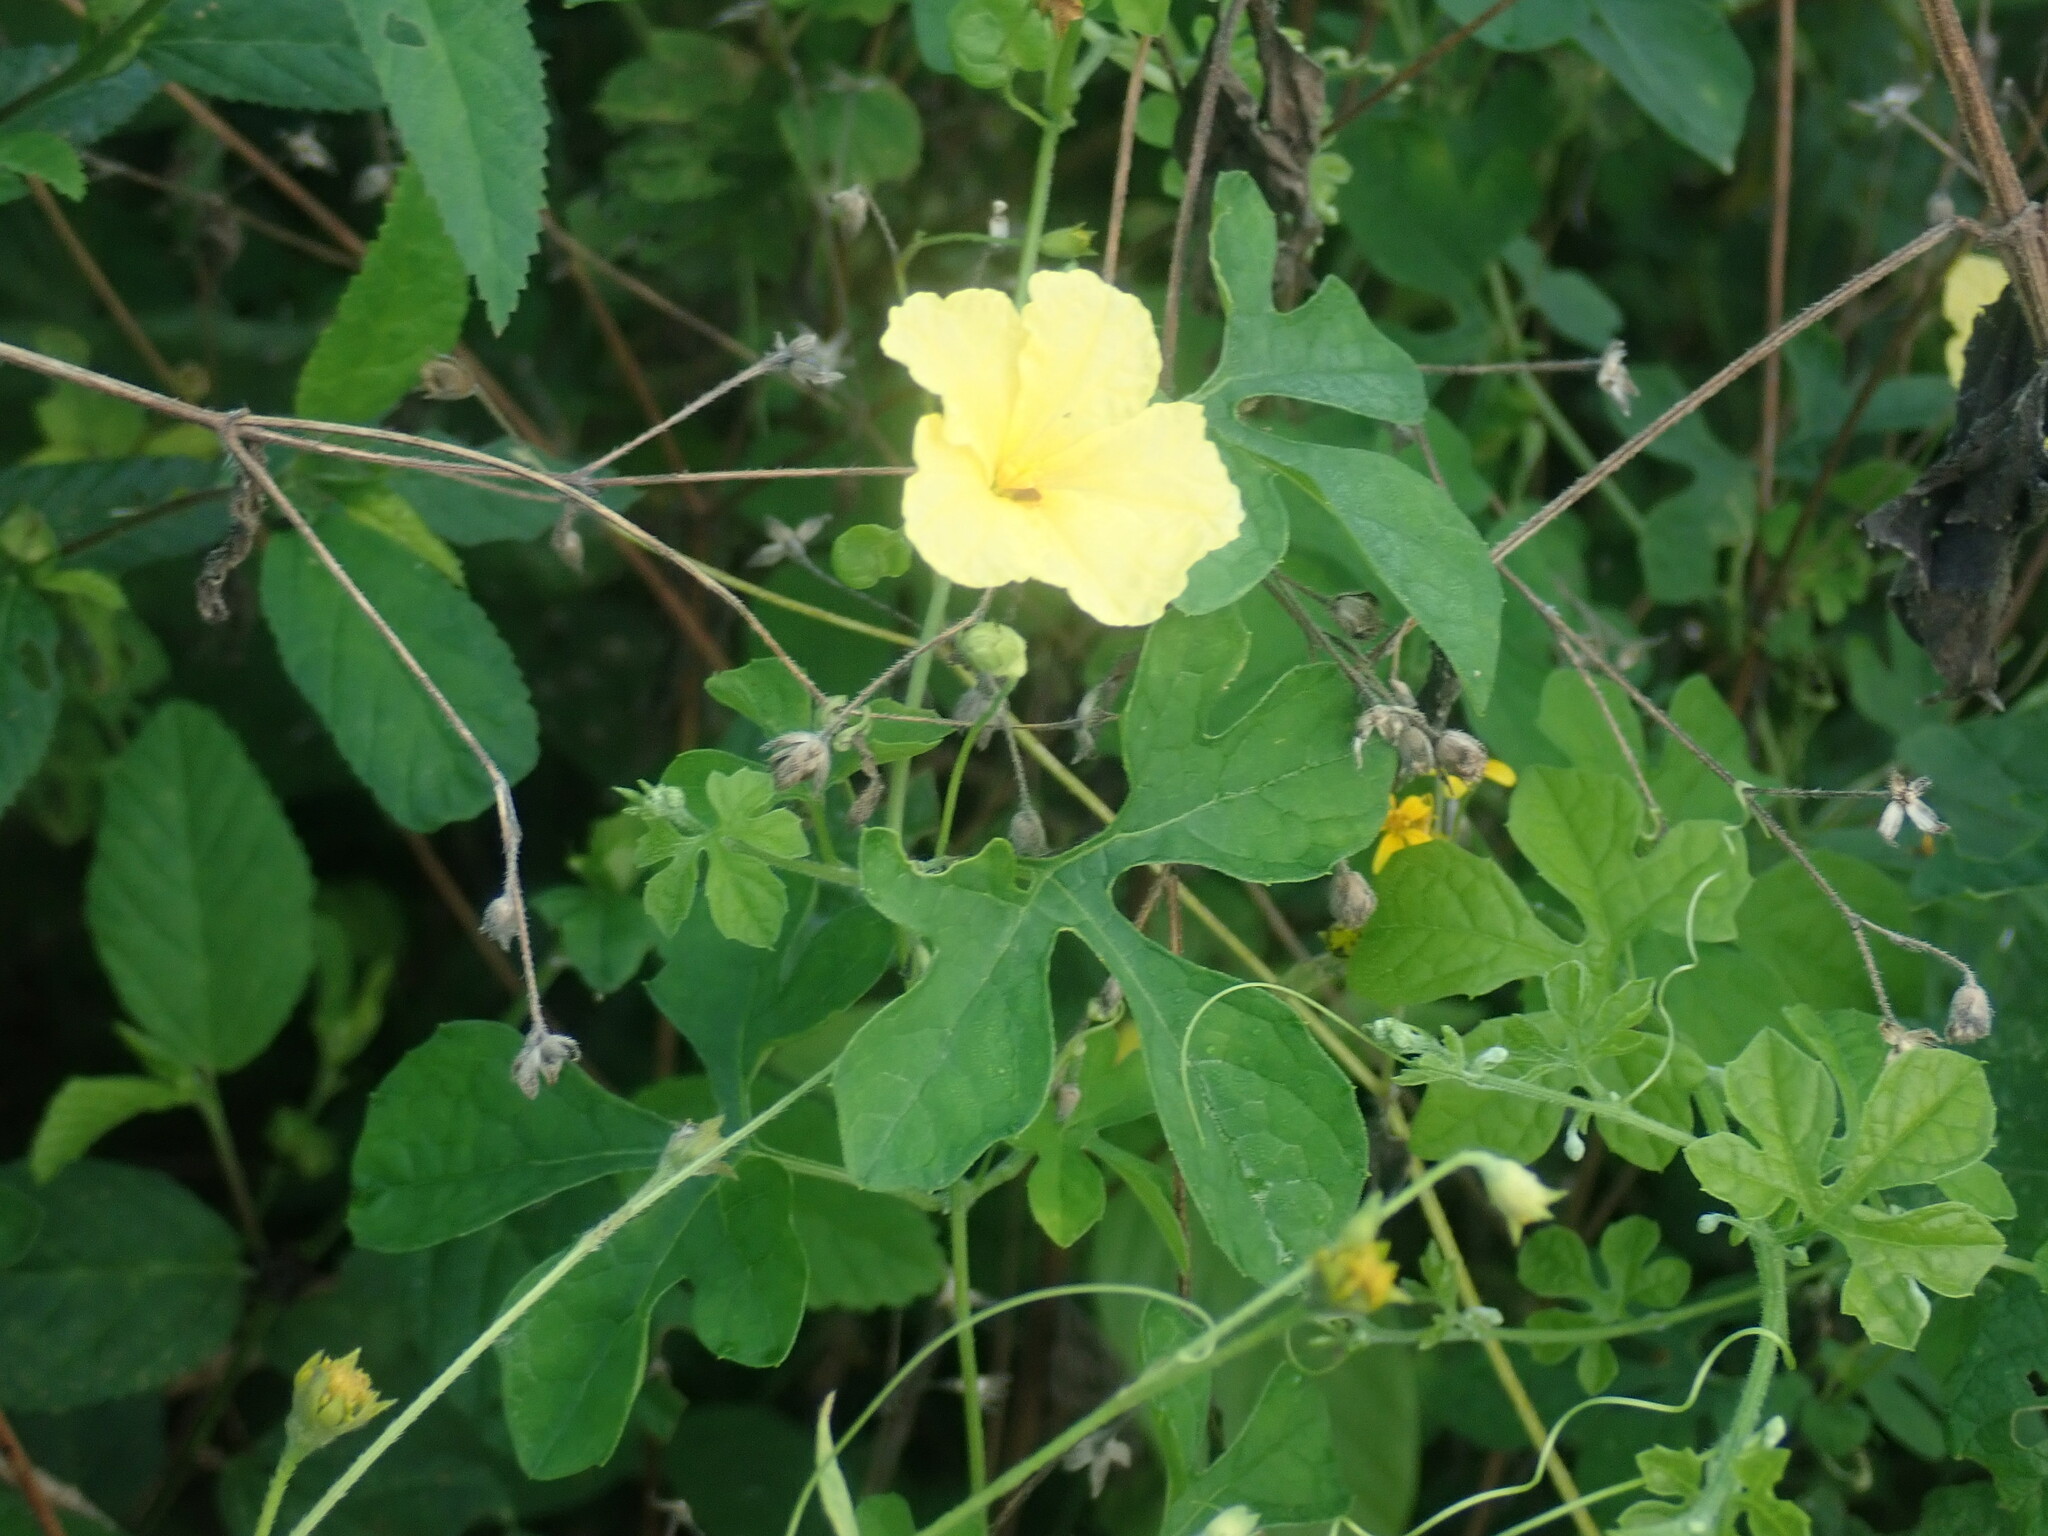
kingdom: Plantae
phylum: Tracheophyta
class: Magnoliopsida
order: Cucurbitales
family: Cucurbitaceae
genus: Momordica
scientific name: Momordica charantia
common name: Balsampear
